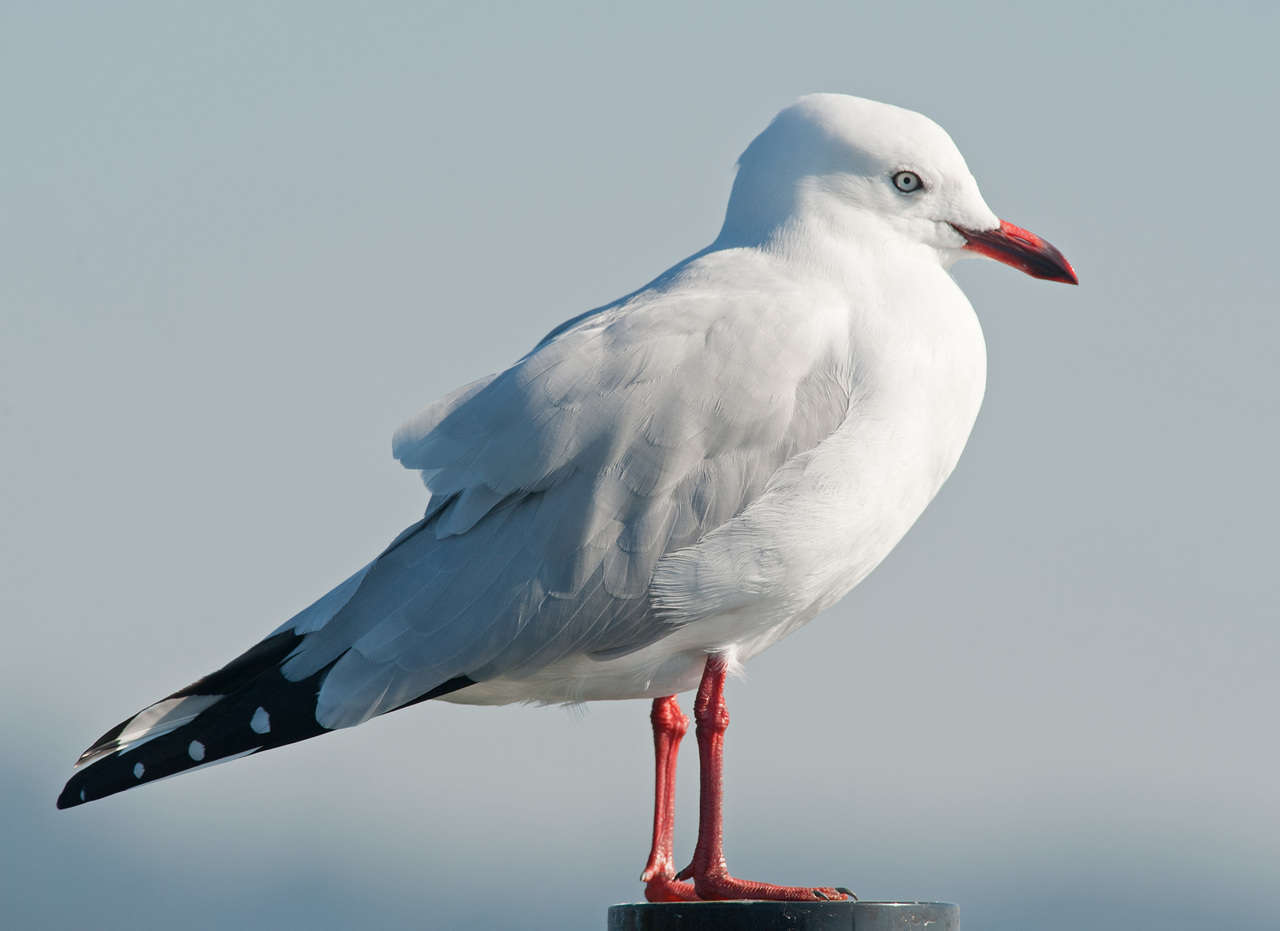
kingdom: Animalia
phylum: Chordata
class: Aves
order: Charadriiformes
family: Laridae
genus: Chroicocephalus
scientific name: Chroicocephalus novaehollandiae
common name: Silver gull
